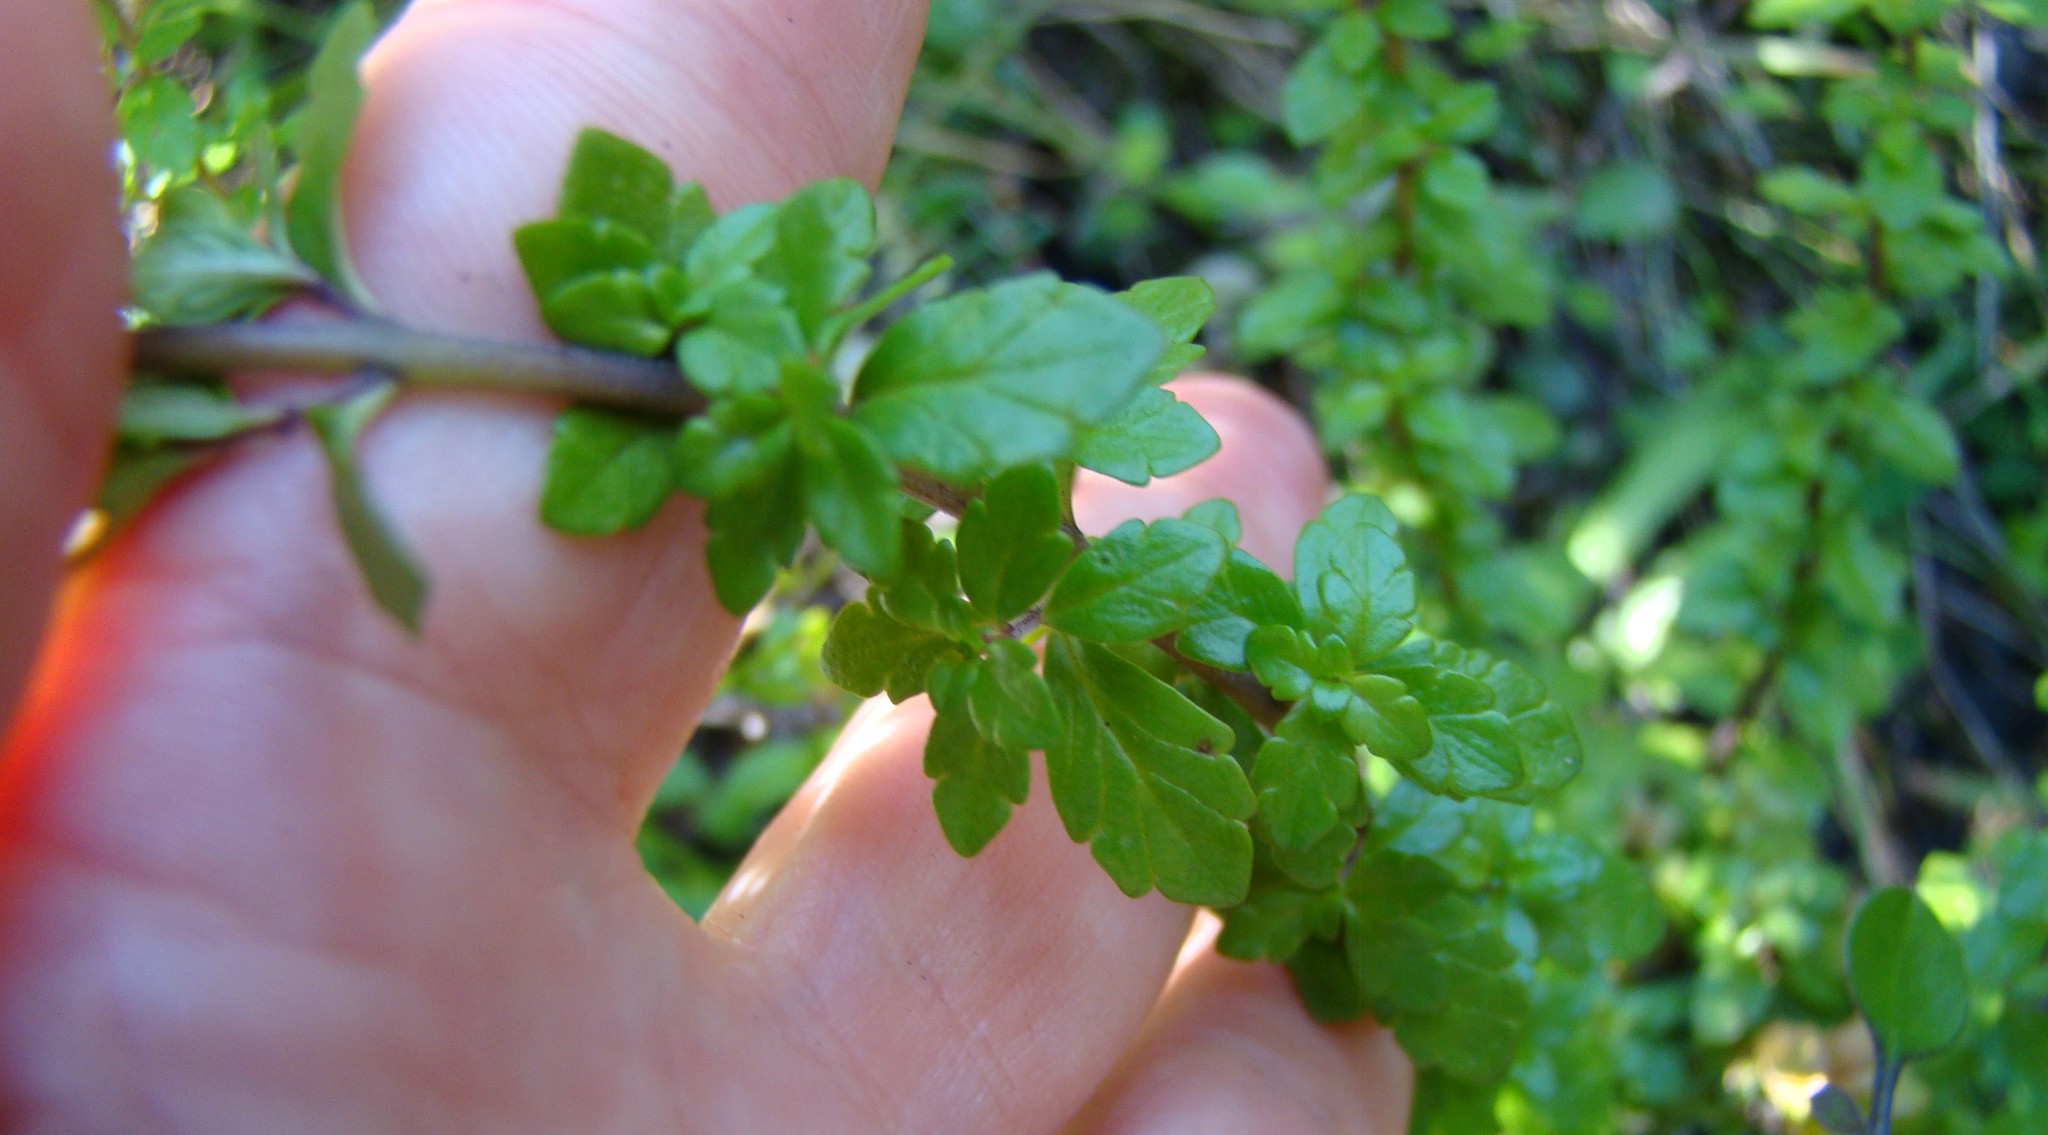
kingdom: Plantae
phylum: Tracheophyta
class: Magnoliopsida
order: Lamiales
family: Orobanchaceae
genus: Euphrasia
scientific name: Euphrasia cuneata
